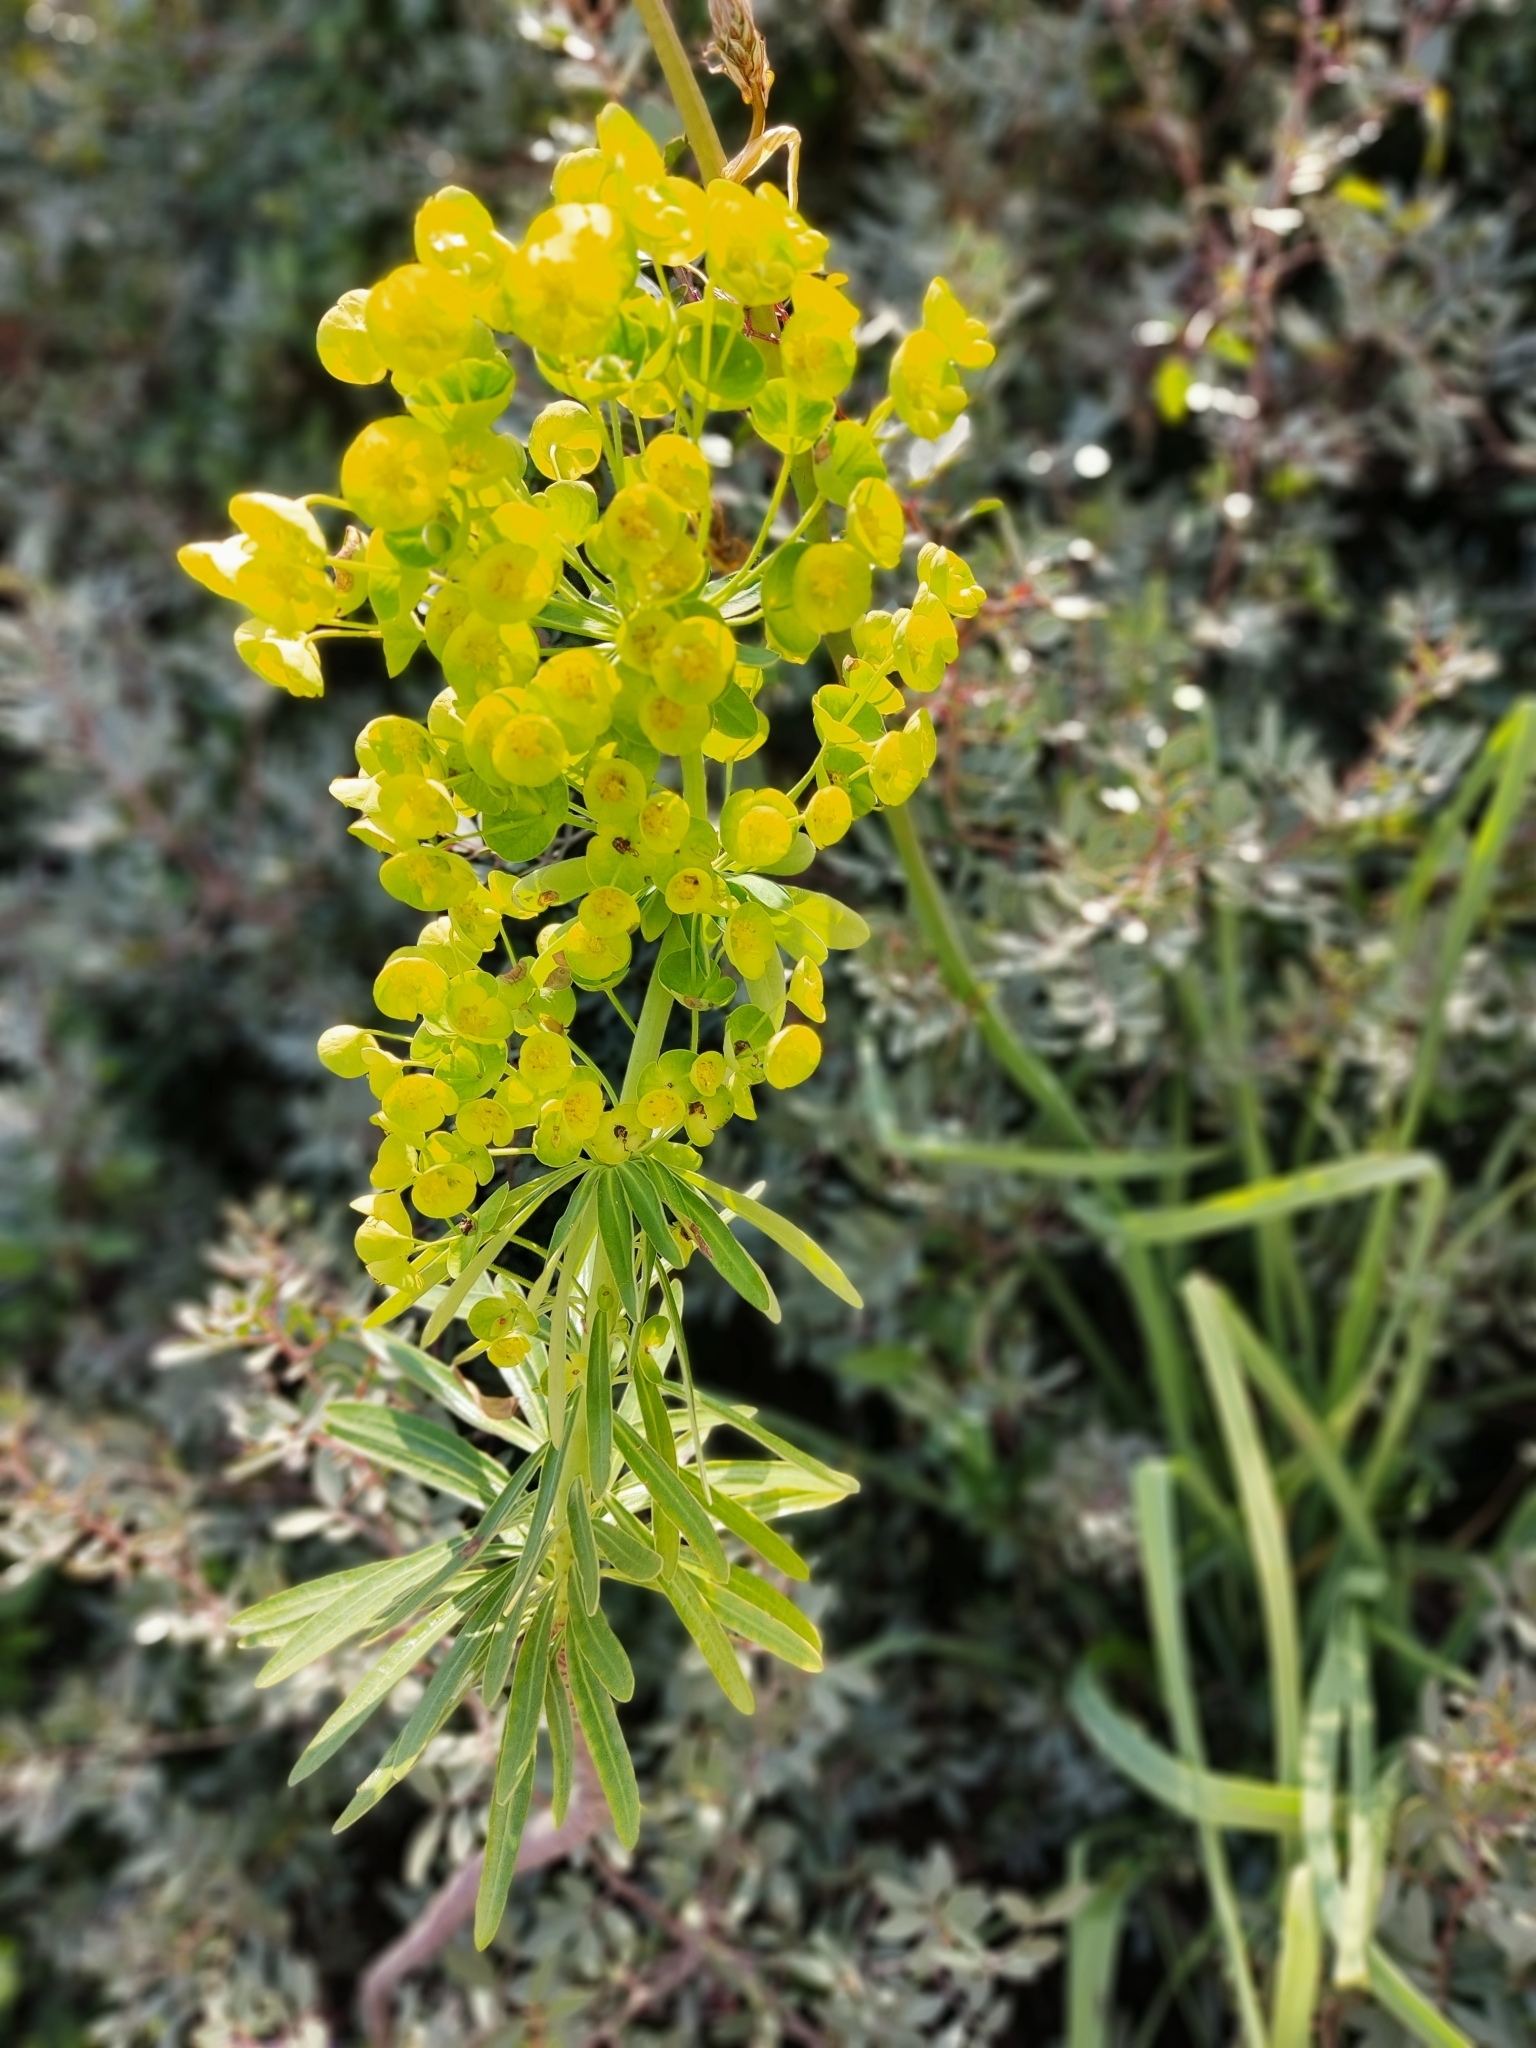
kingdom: Plantae
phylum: Tracheophyta
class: Magnoliopsida
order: Malpighiales
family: Euphorbiaceae
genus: Euphorbia
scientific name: Euphorbia characias
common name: Mediterranean spurge
